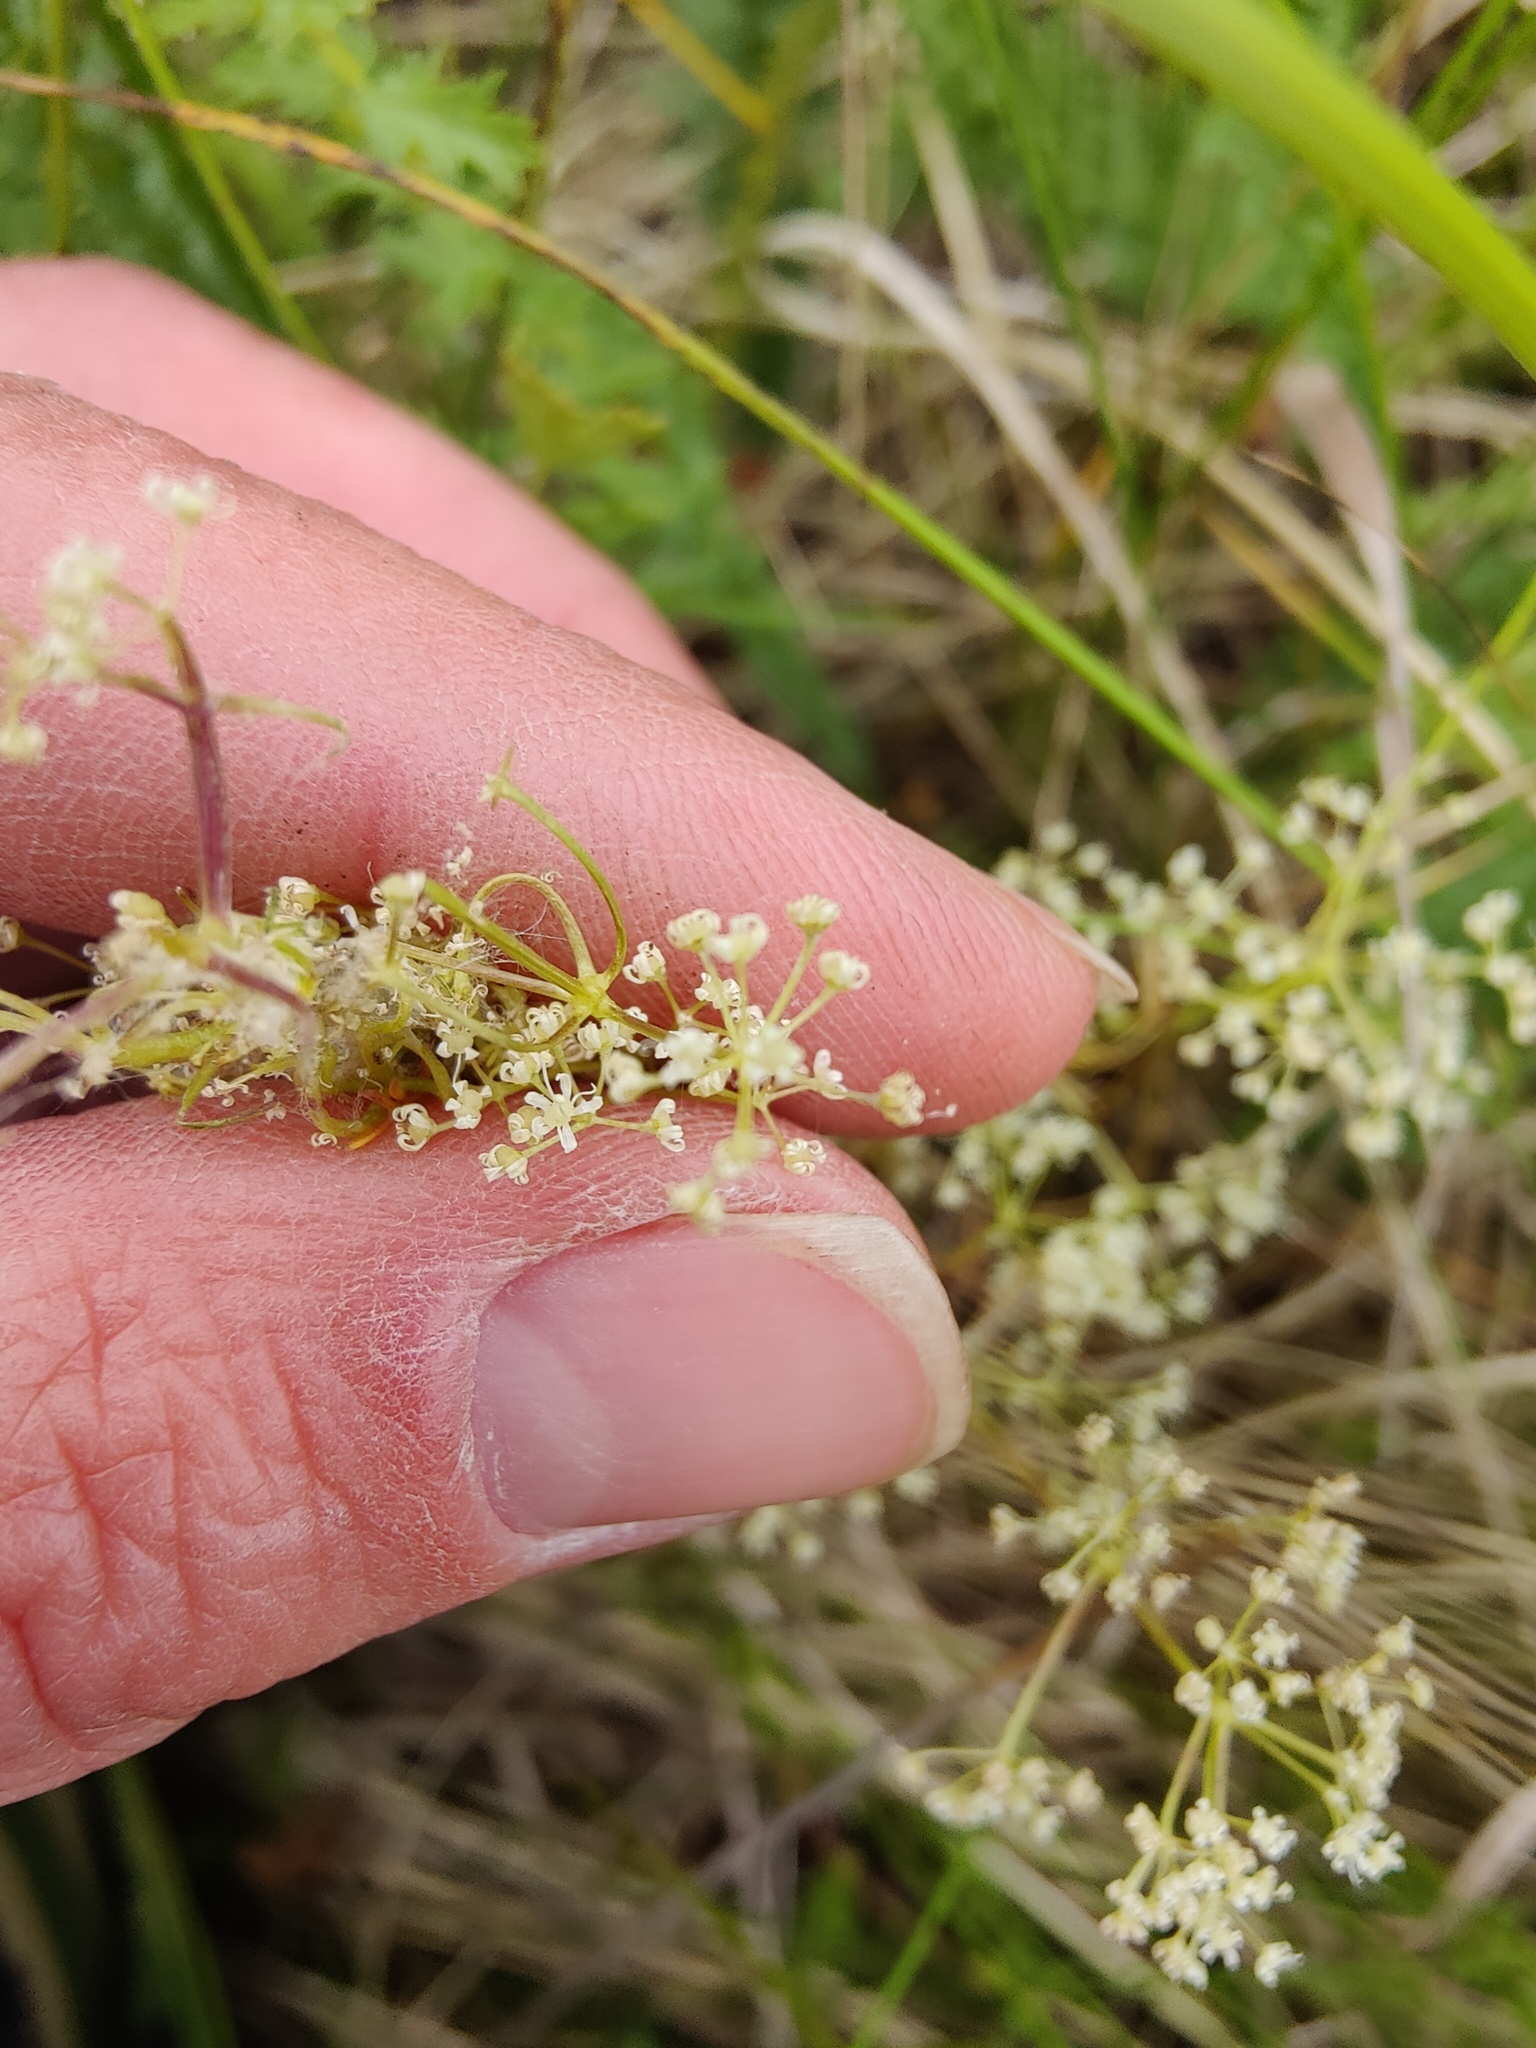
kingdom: Plantae
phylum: Tracheophyta
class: Magnoliopsida
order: Apiales
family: Apiaceae
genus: Trinia
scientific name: Trinia multicaulis
